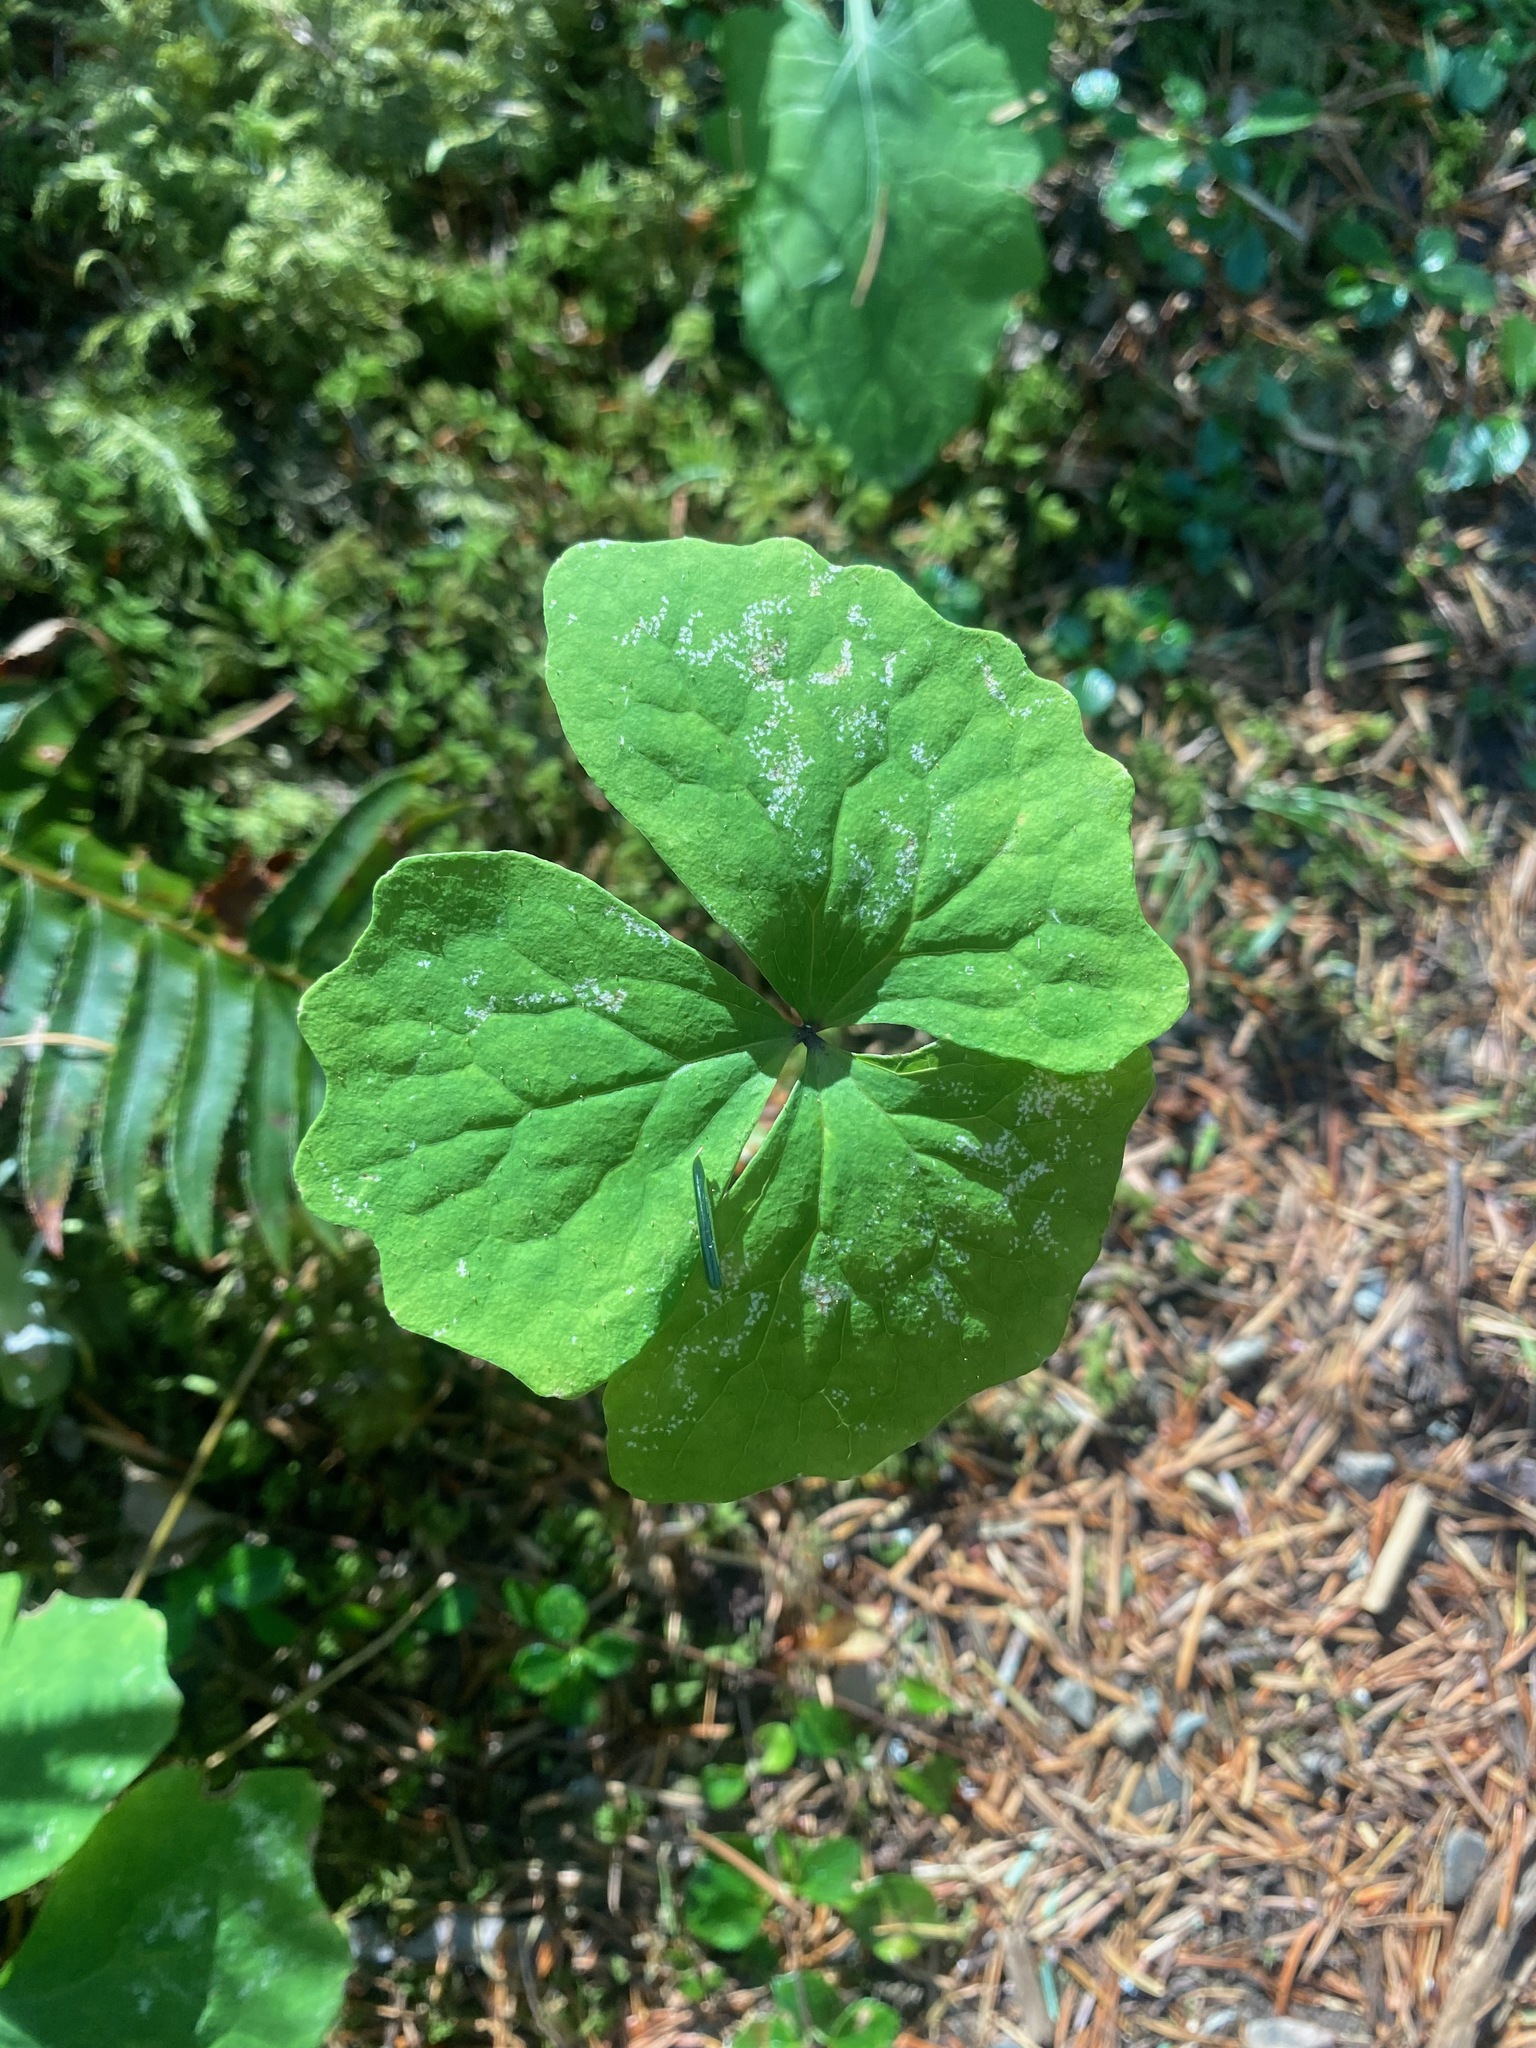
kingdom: Plantae
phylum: Tracheophyta
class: Magnoliopsida
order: Ranunculales
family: Berberidaceae
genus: Achlys
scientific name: Achlys triphylla
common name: Vanilla-leaf
